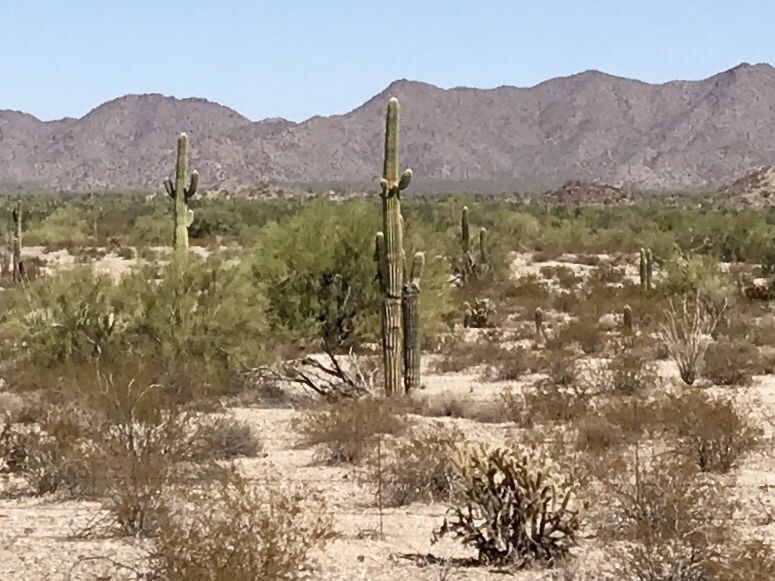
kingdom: Plantae
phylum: Tracheophyta
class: Magnoliopsida
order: Caryophyllales
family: Cactaceae
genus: Carnegiea
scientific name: Carnegiea gigantea
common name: Saguaro
